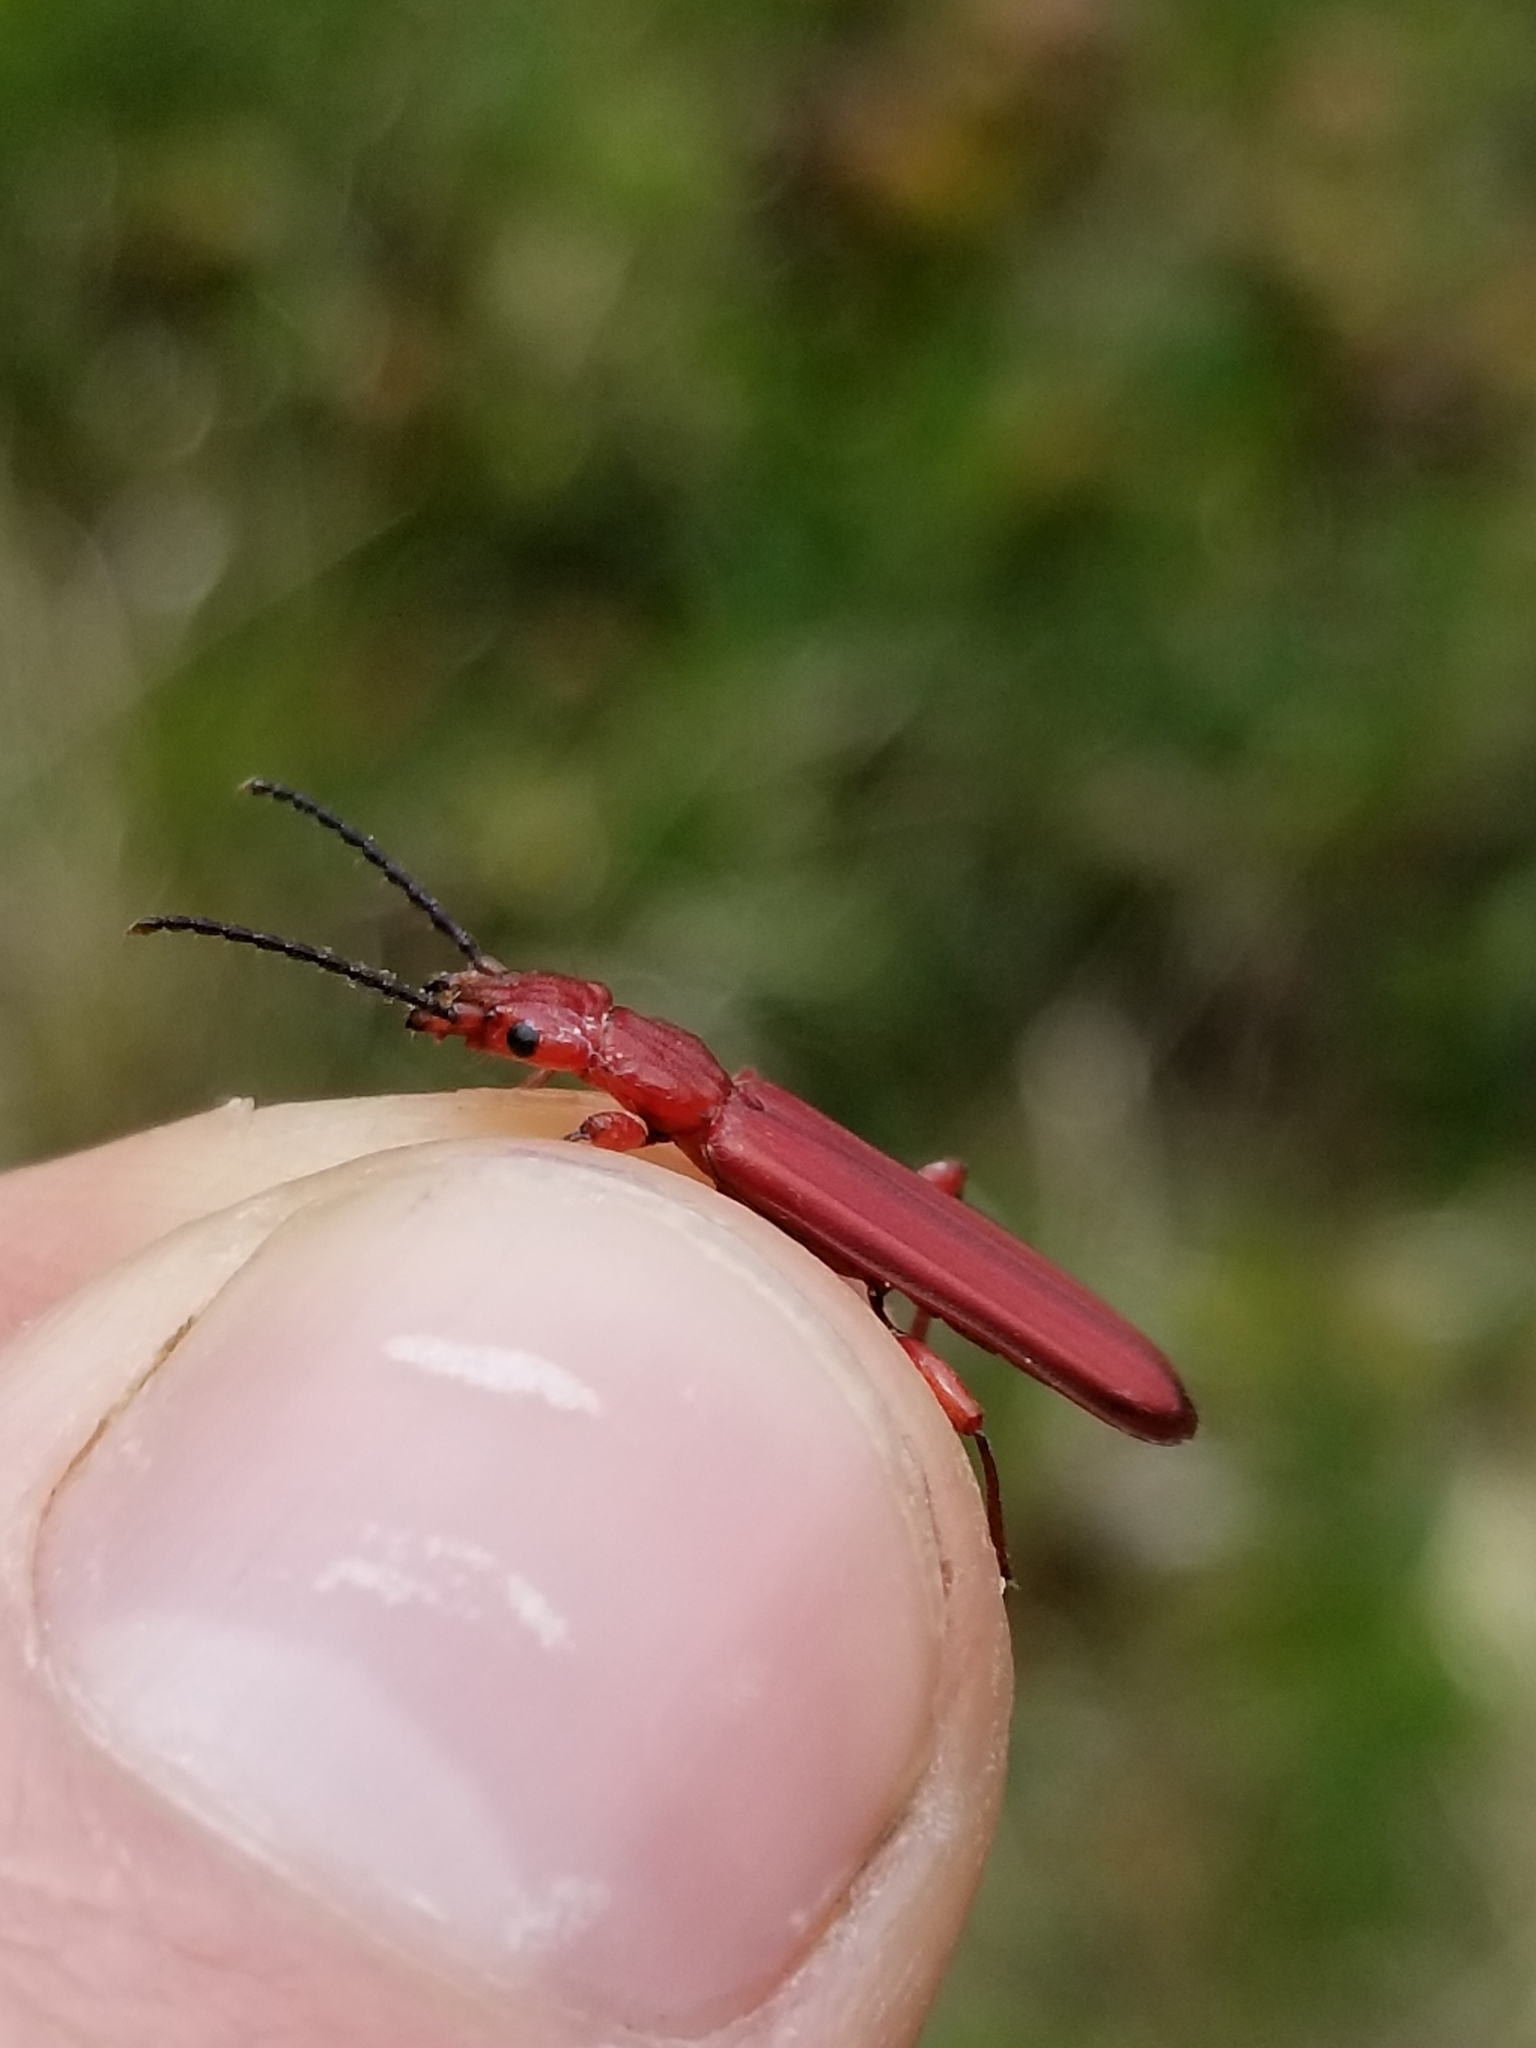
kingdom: Animalia
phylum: Arthropoda
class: Insecta
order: Coleoptera
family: Cucujidae
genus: Cucujus
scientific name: Cucujus clavipes
